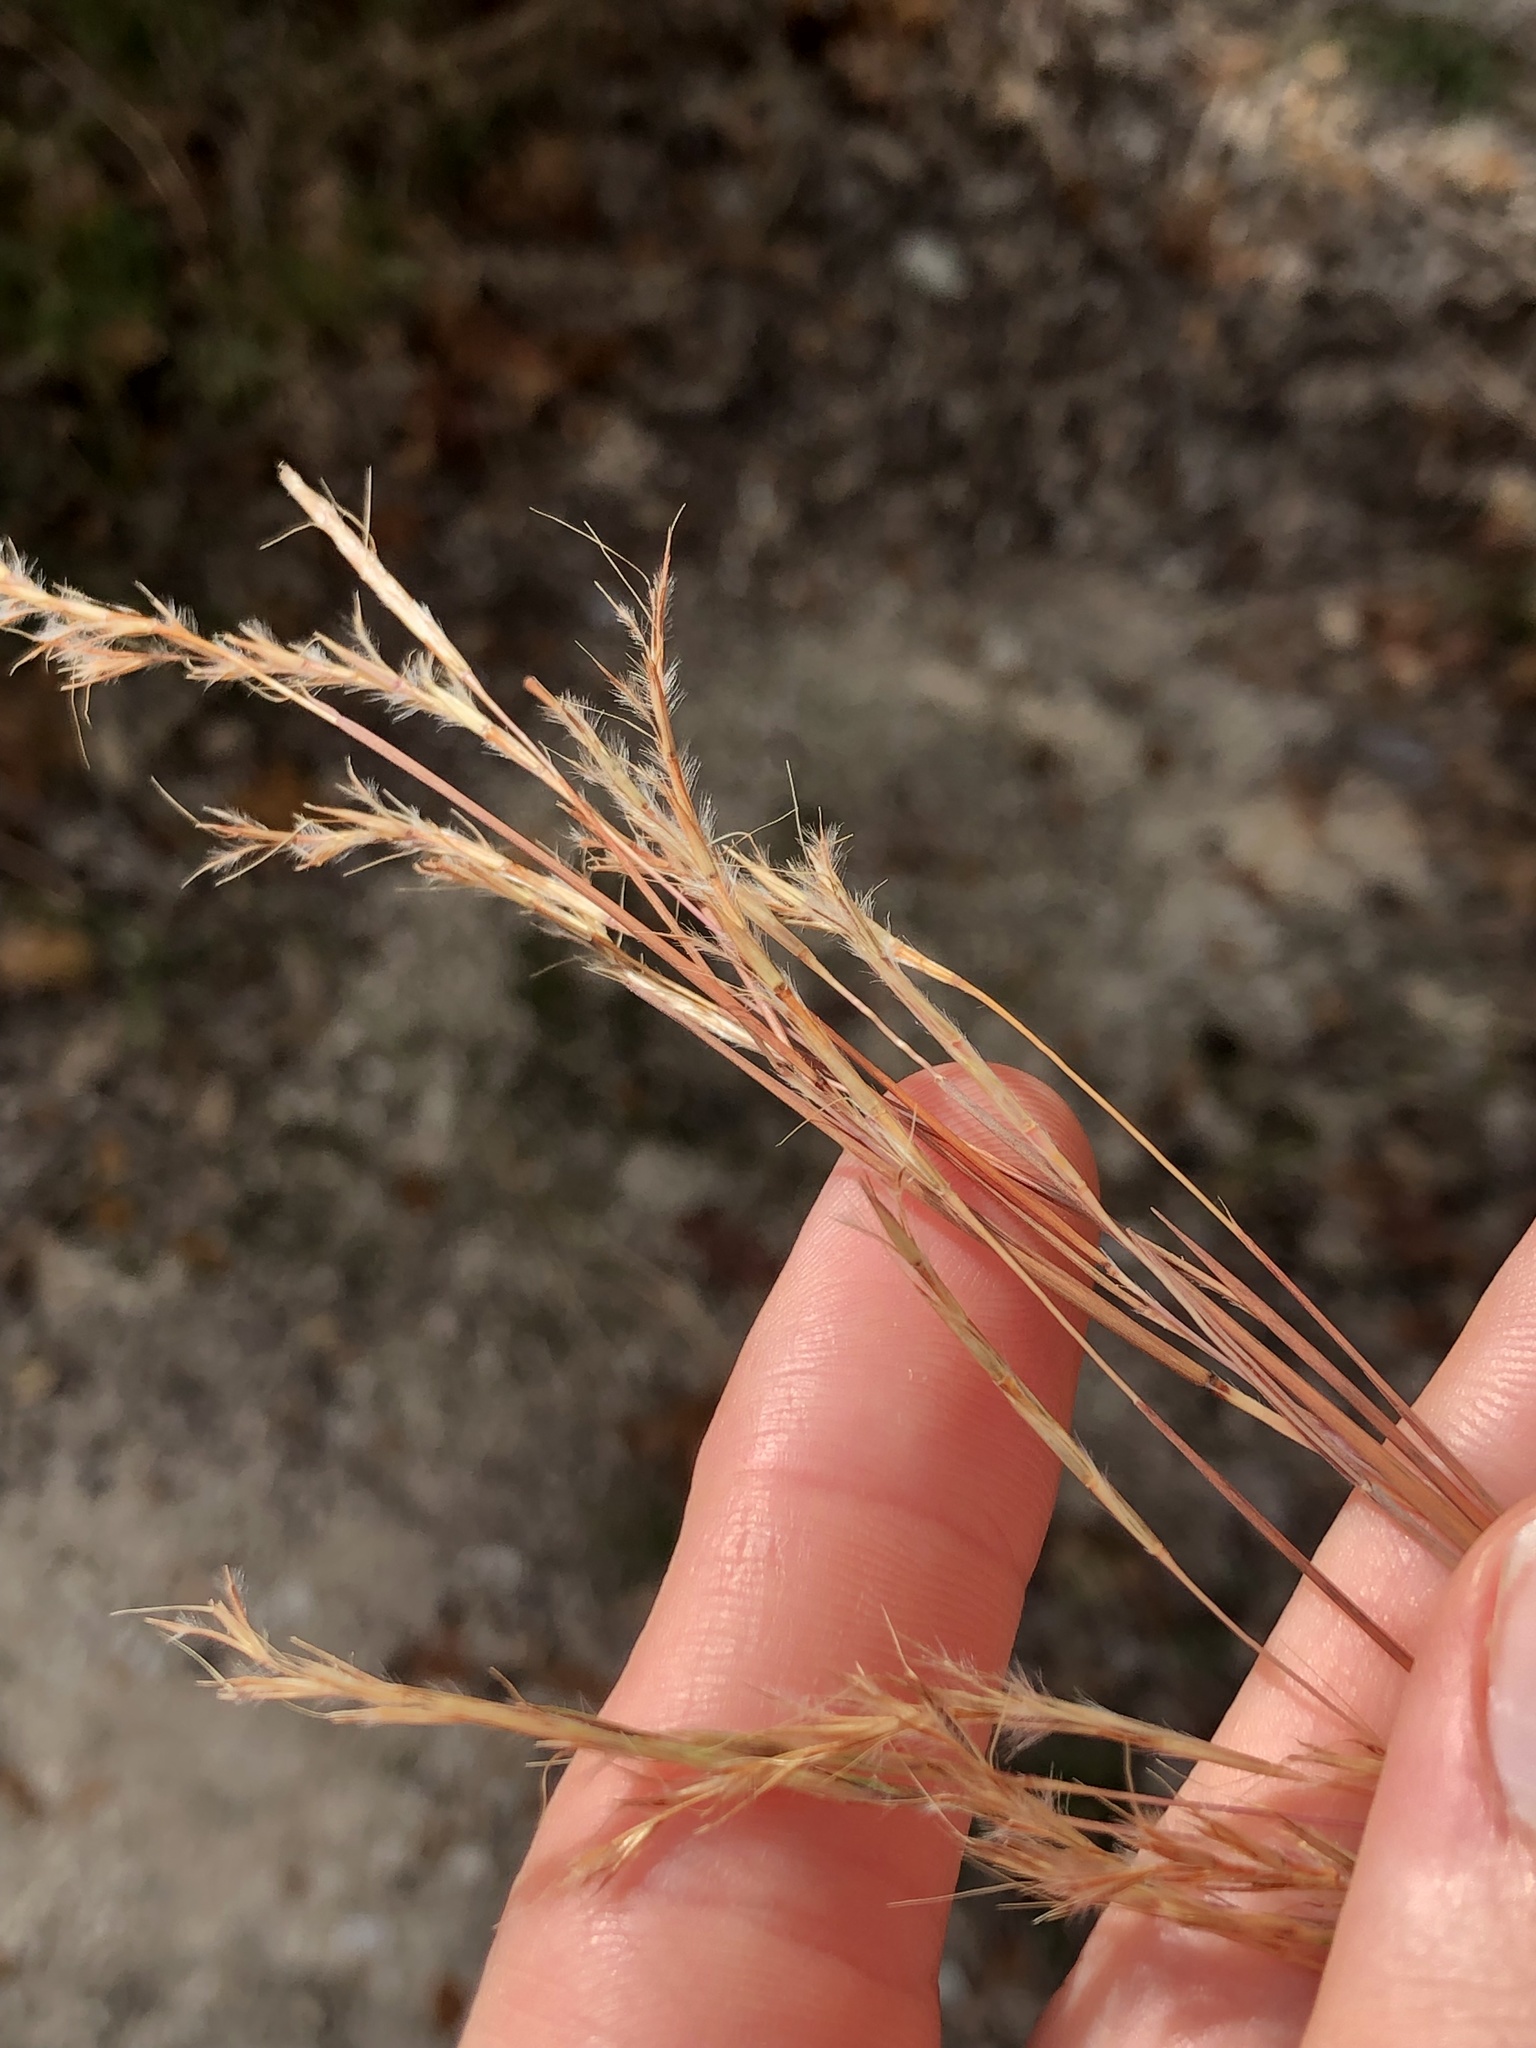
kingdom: Plantae
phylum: Tracheophyta
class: Liliopsida
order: Poales
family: Poaceae
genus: Schizachyrium
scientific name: Schizachyrium scoparium
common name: Little bluestem
